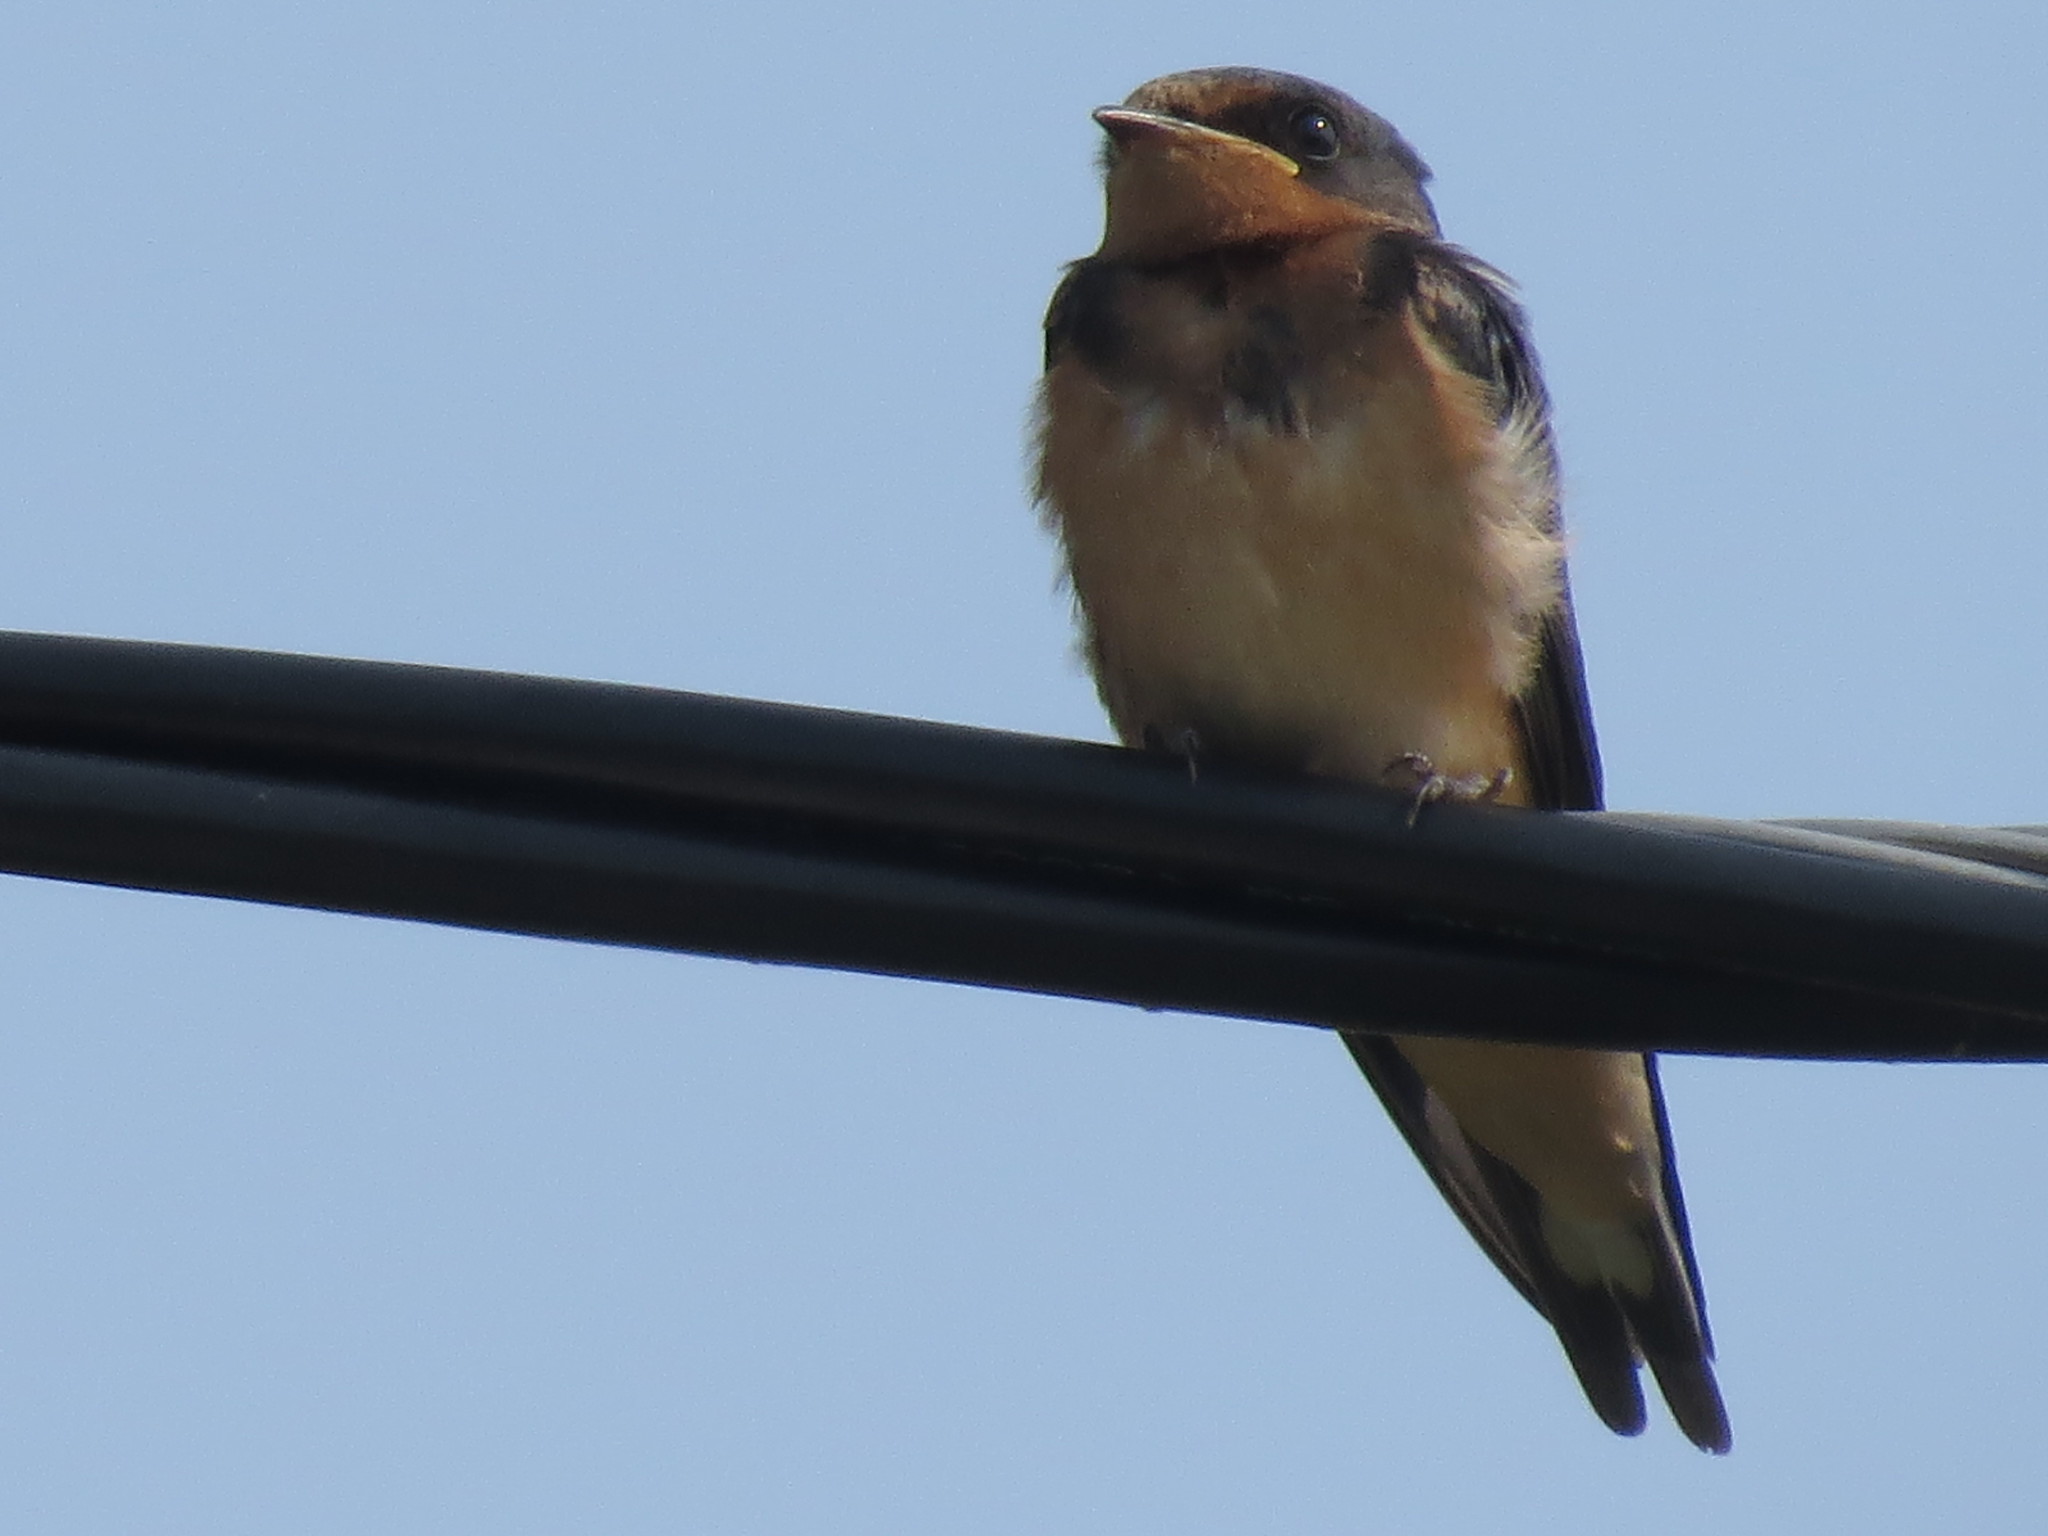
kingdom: Animalia
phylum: Chordata
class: Aves
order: Passeriformes
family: Hirundinidae
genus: Hirundo
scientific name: Hirundo rustica
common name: Barn swallow
